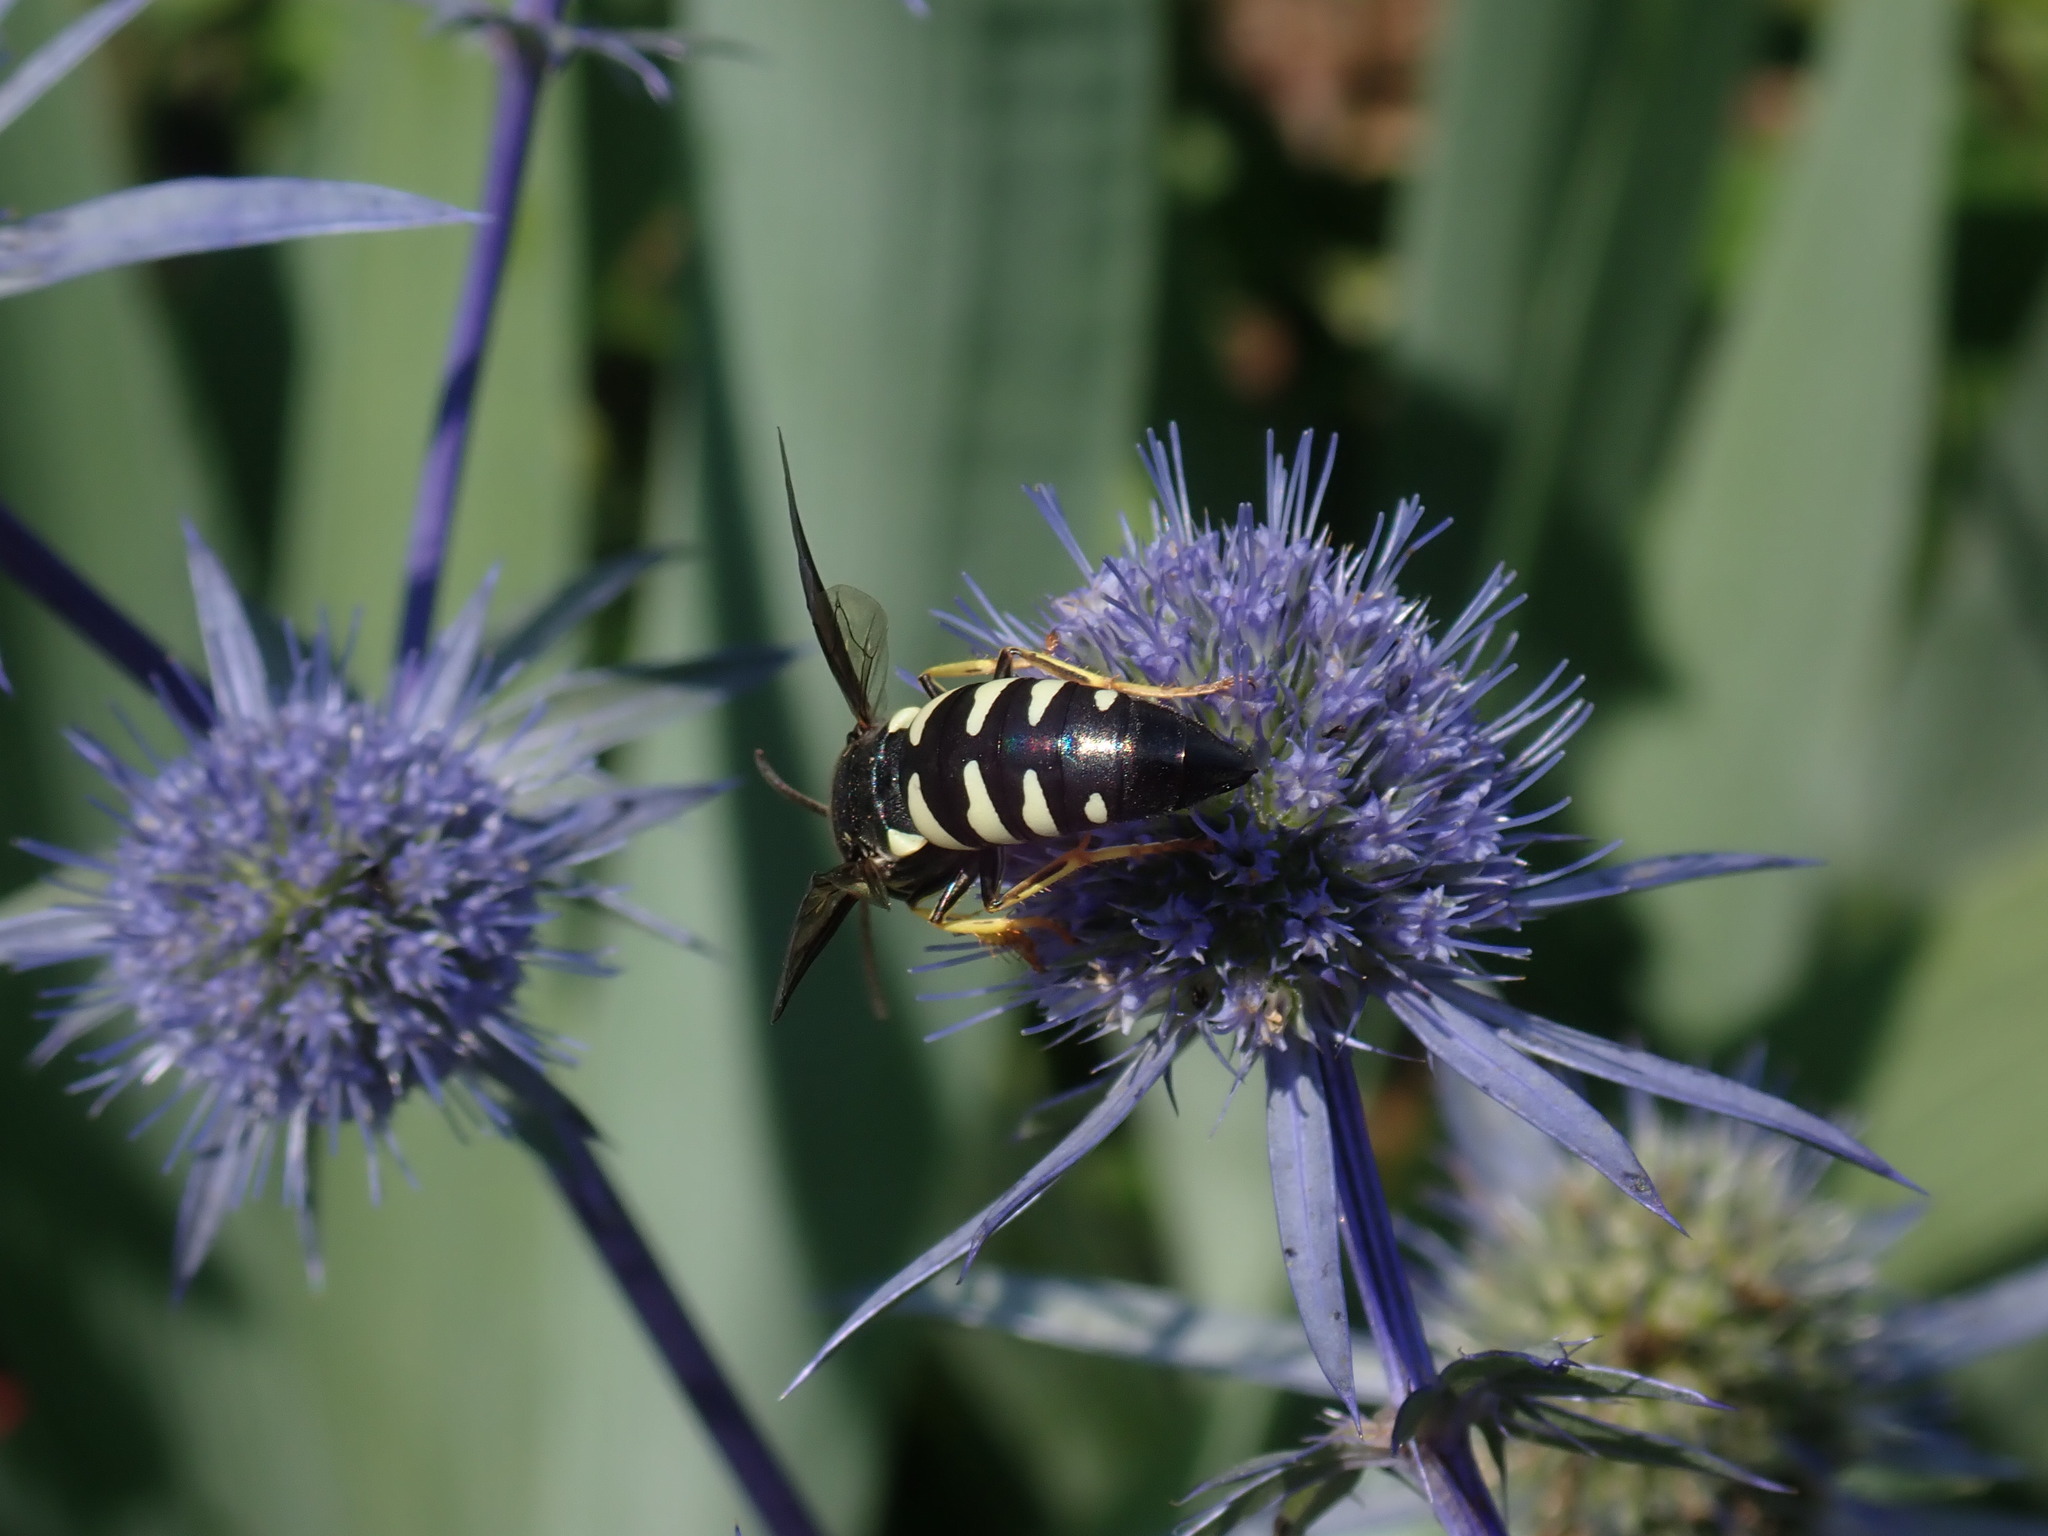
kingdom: Animalia
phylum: Arthropoda
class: Insecta
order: Hymenoptera
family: Crabronidae
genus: Bicyrtes
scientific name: Bicyrtes quadrifasciatus
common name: Four-banded stink bug hunter wasp
